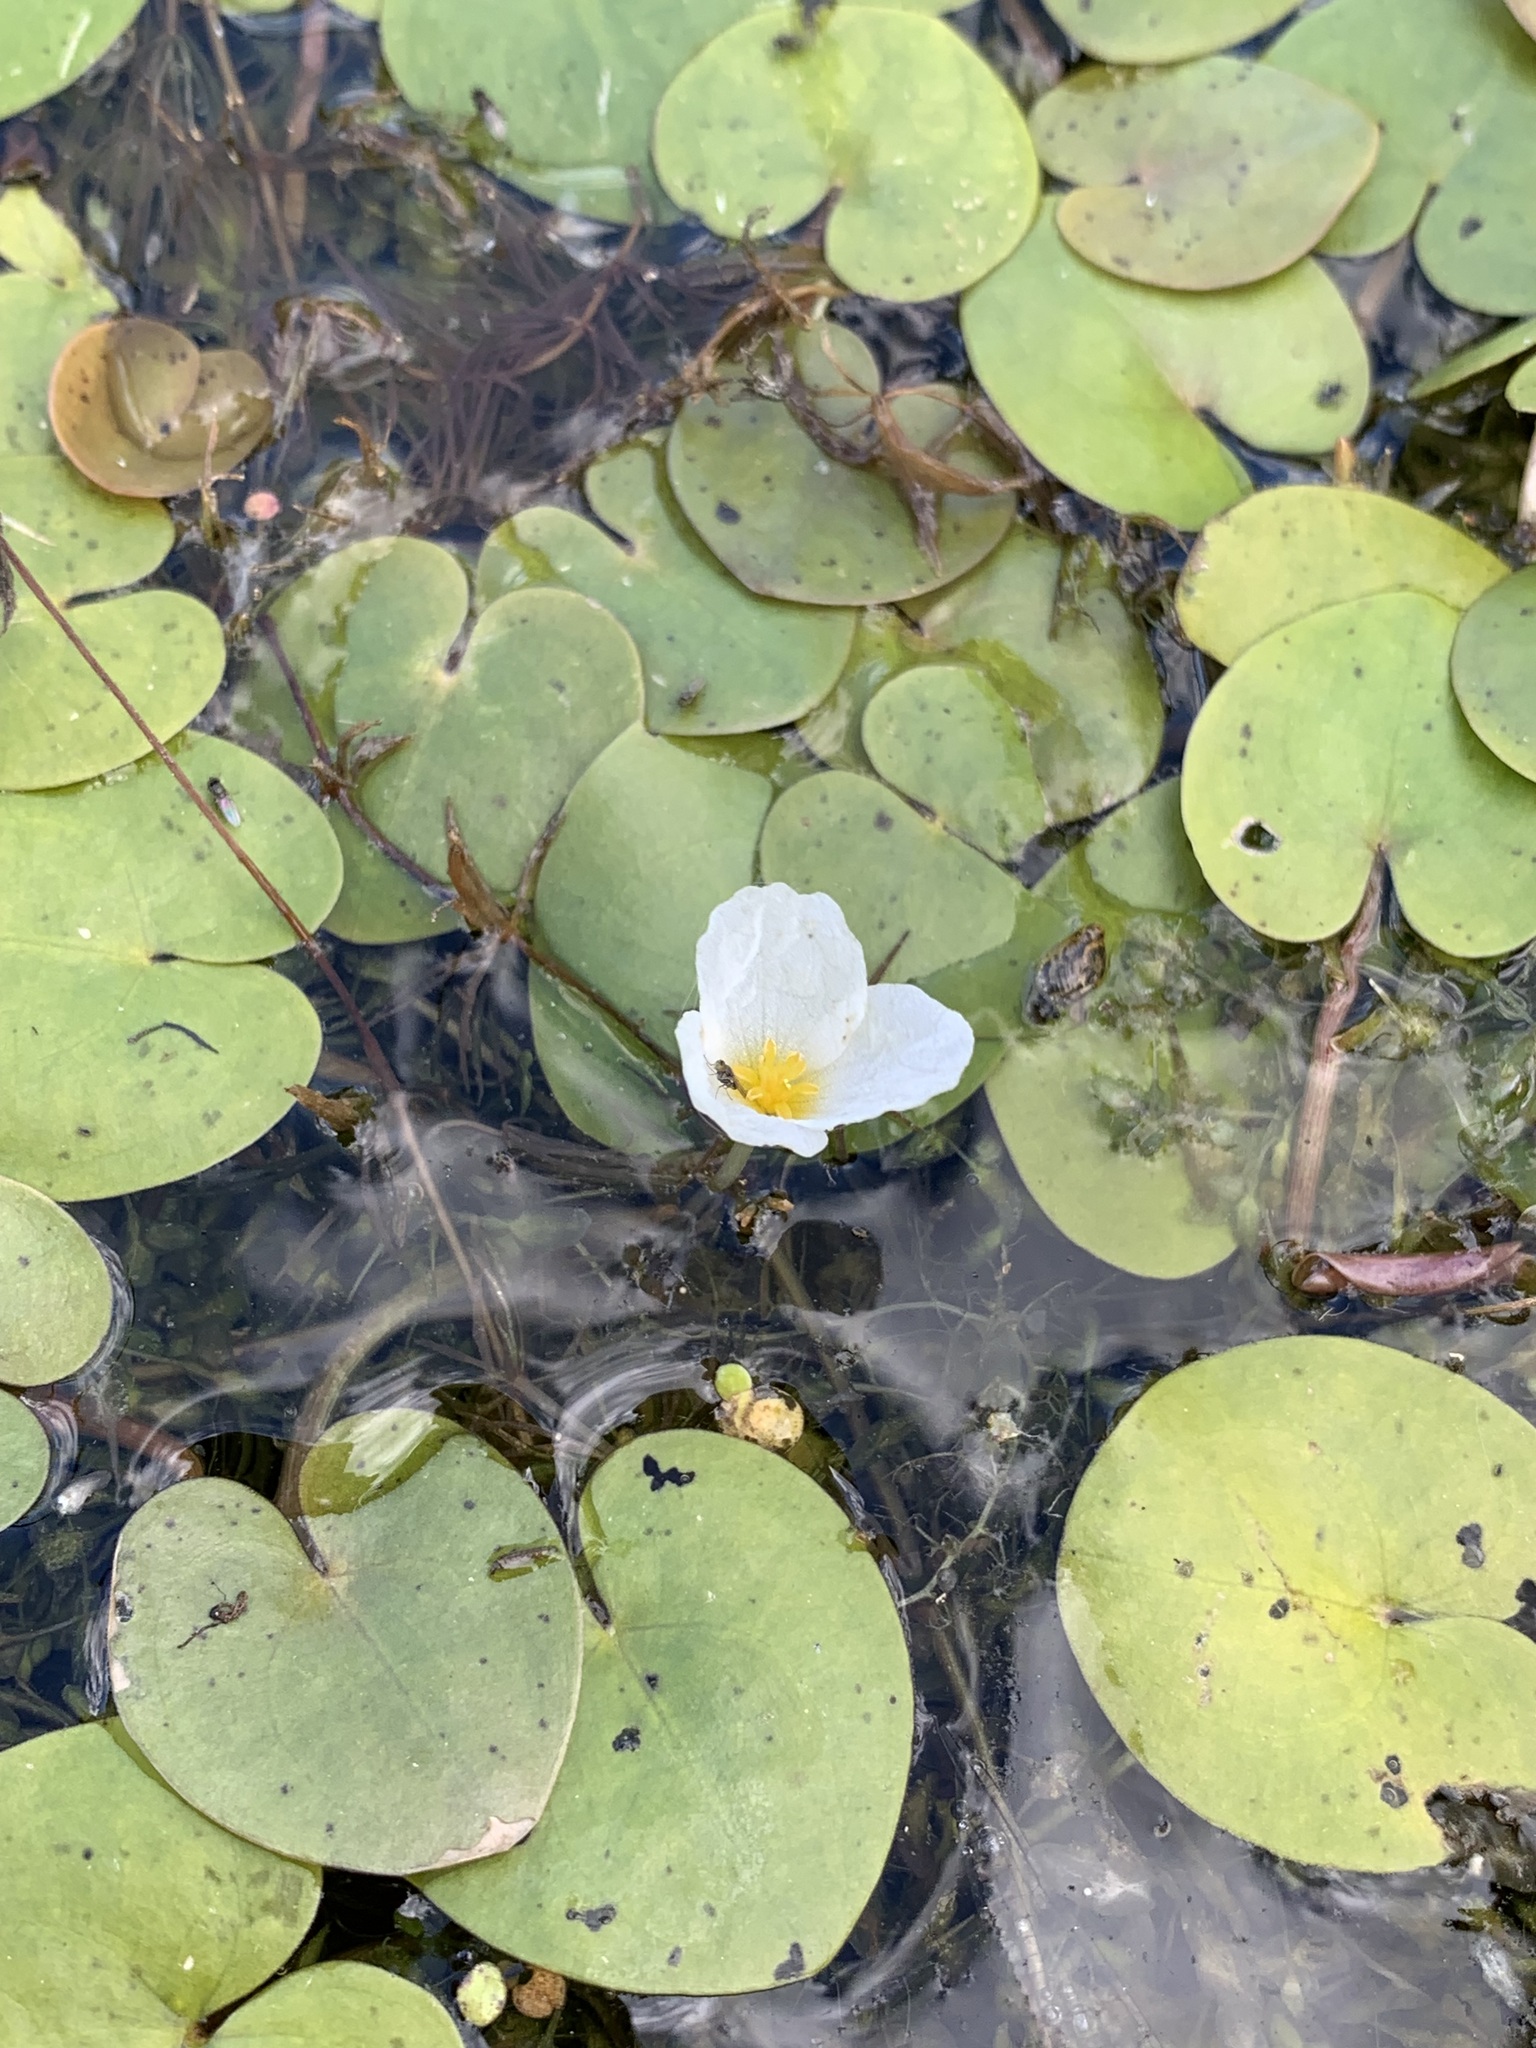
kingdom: Plantae
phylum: Tracheophyta
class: Liliopsida
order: Alismatales
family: Hydrocharitaceae
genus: Hydrocharis
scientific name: Hydrocharis morsus-ranae
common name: Frogbit
